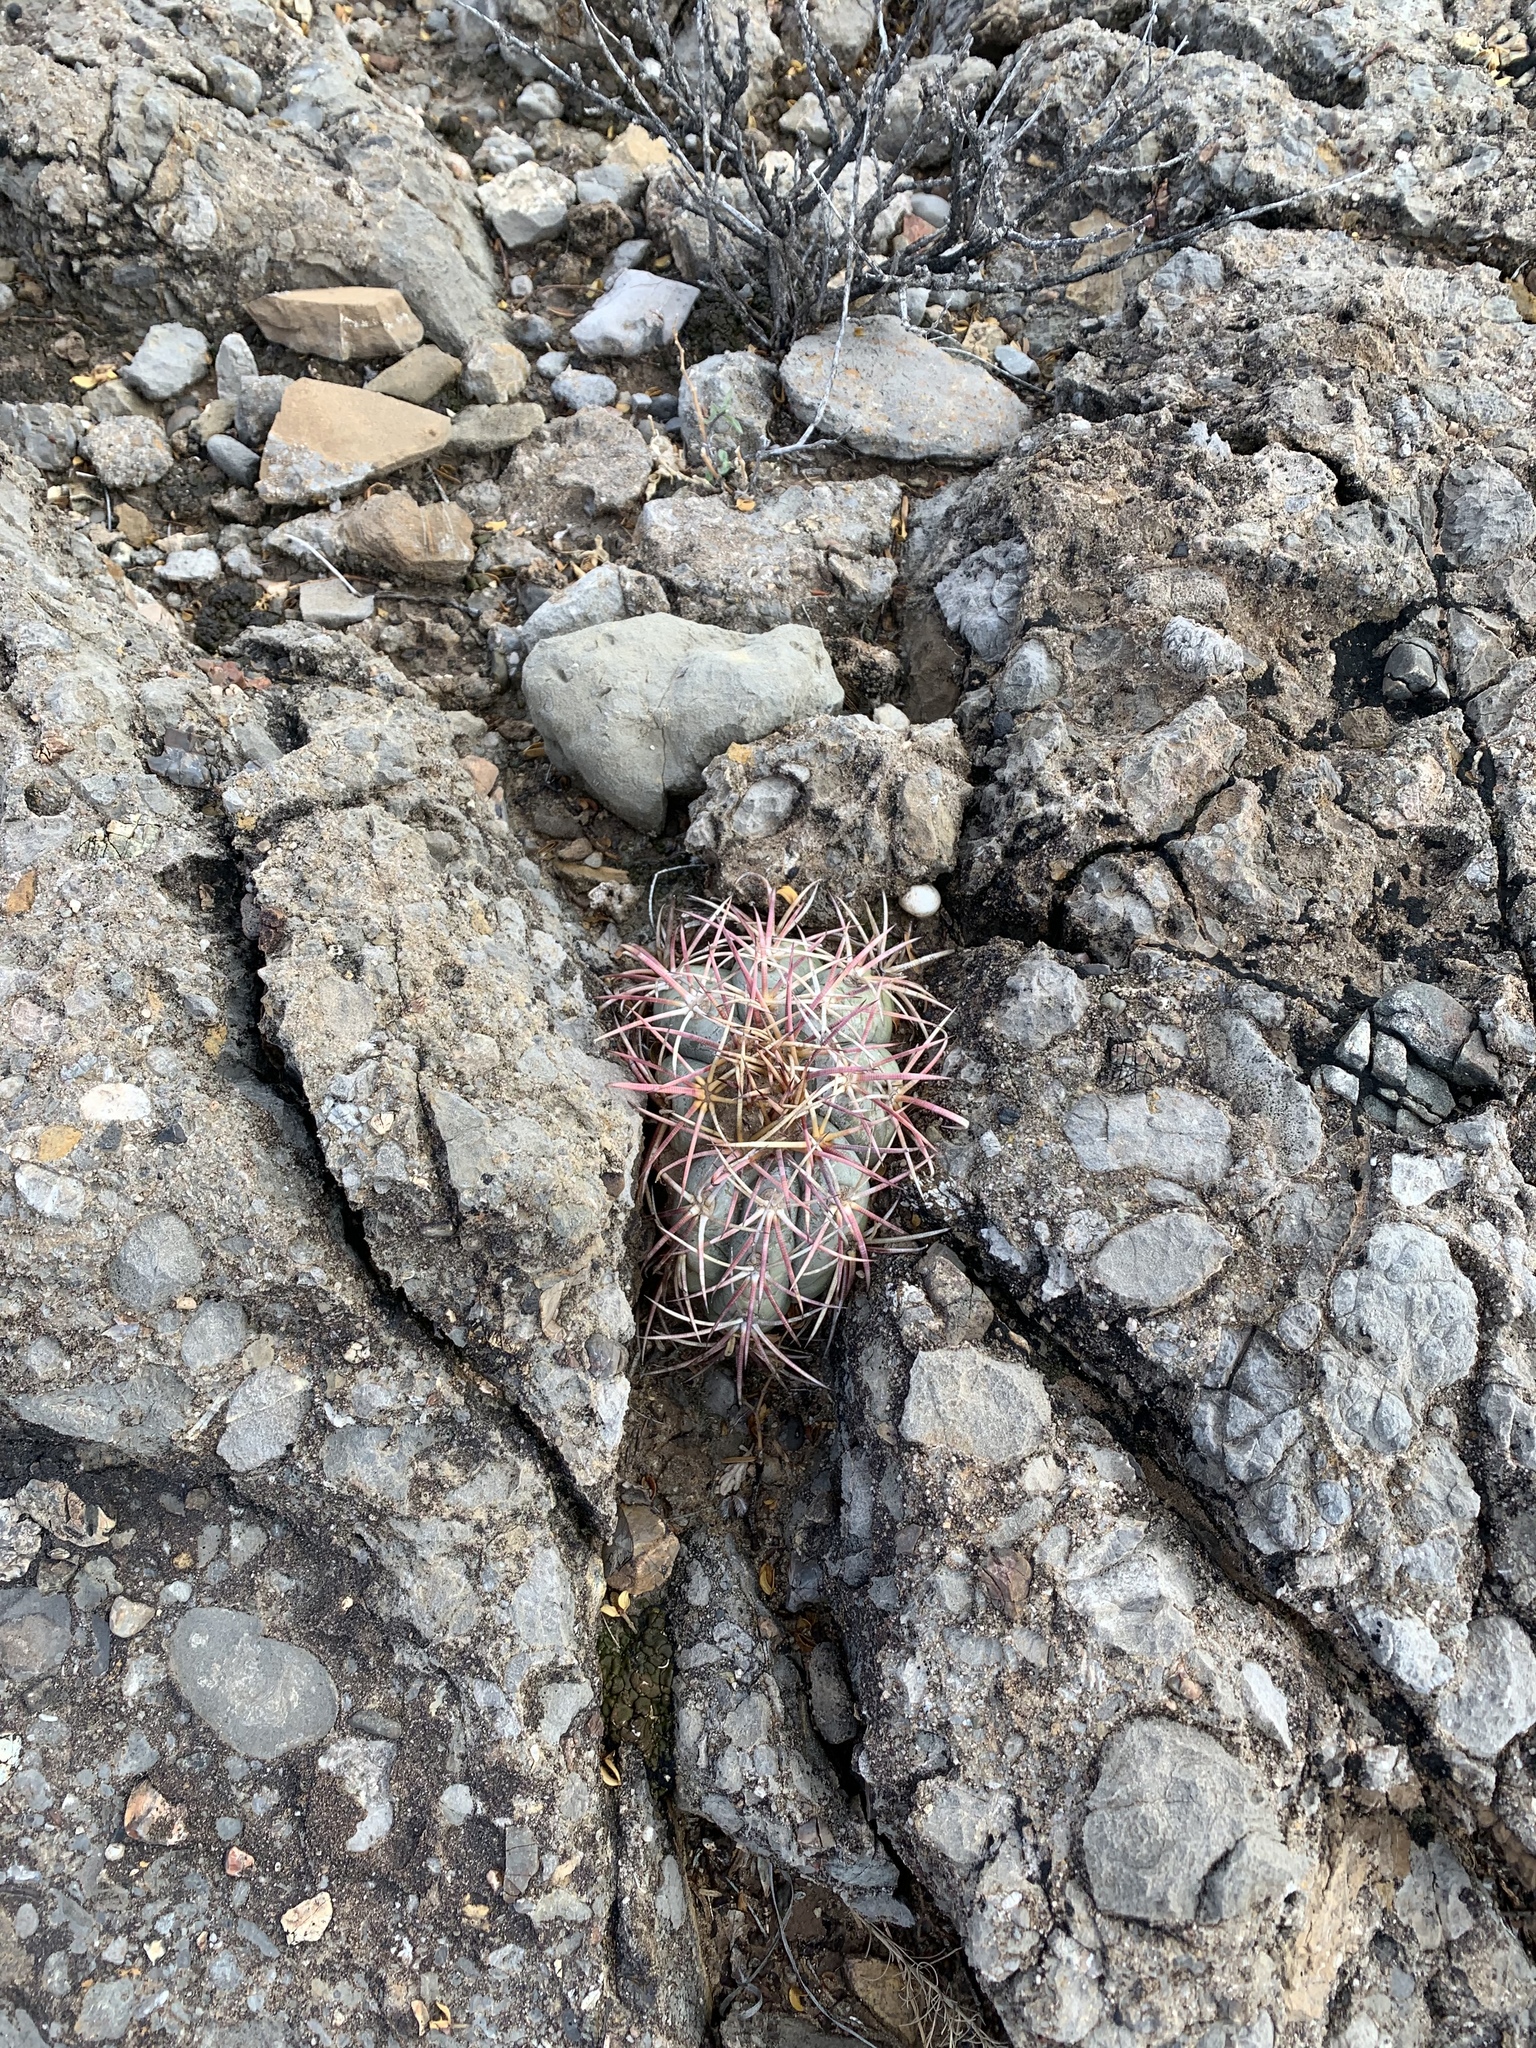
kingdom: Plantae
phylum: Tracheophyta
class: Magnoliopsida
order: Caryophyllales
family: Cactaceae
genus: Echinocactus
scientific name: Echinocactus horizonthalonius
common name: Devilshead
